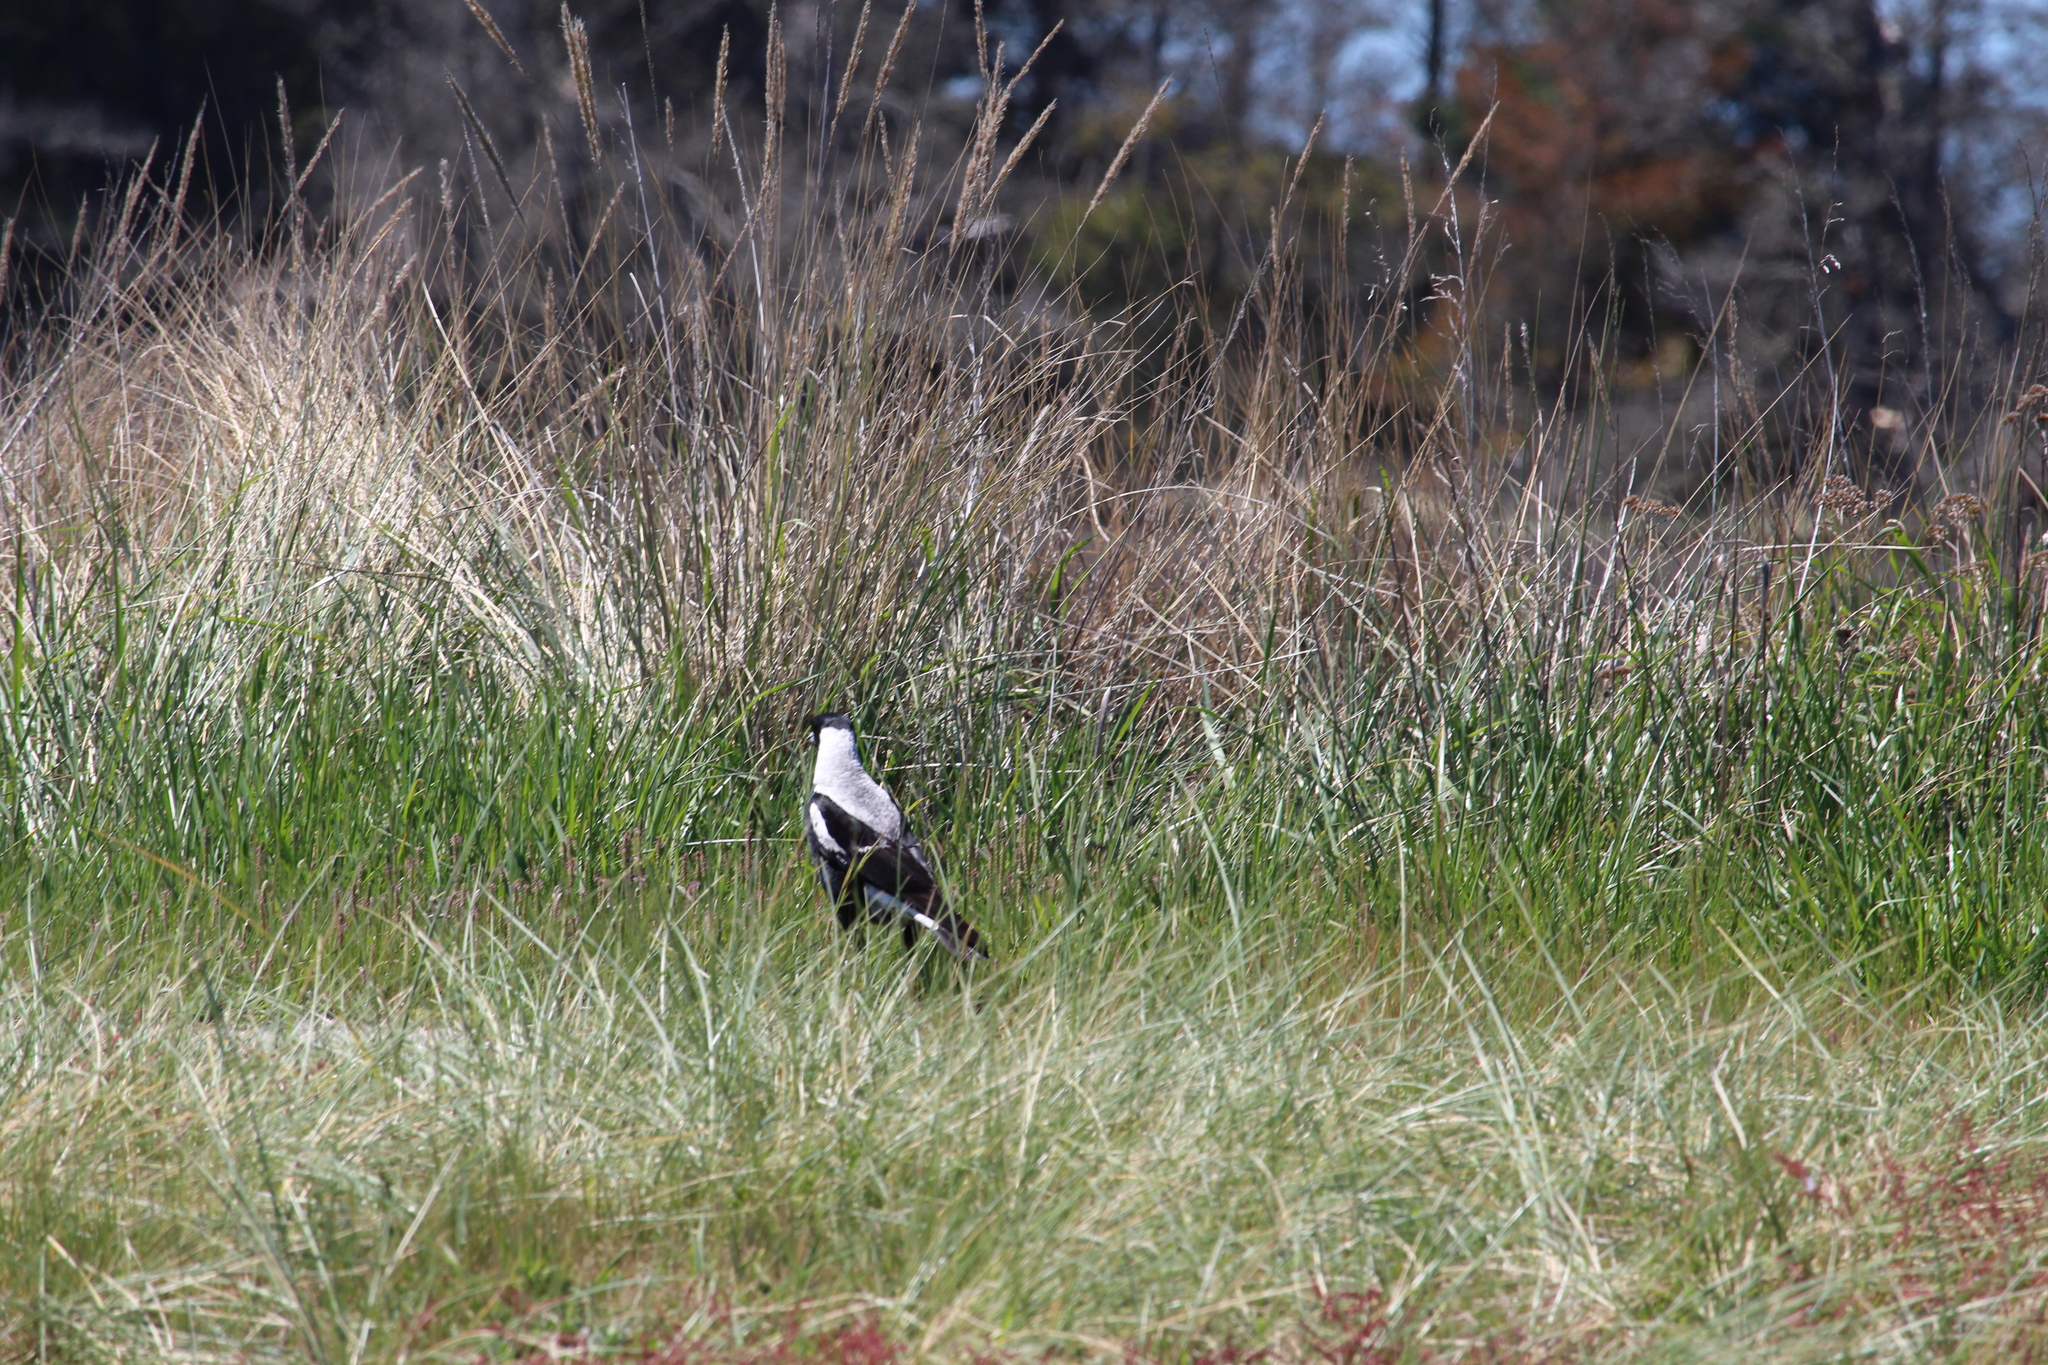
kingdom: Animalia
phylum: Chordata
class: Aves
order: Passeriformes
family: Cracticidae
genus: Gymnorhina
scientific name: Gymnorhina tibicen
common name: Australian magpie
